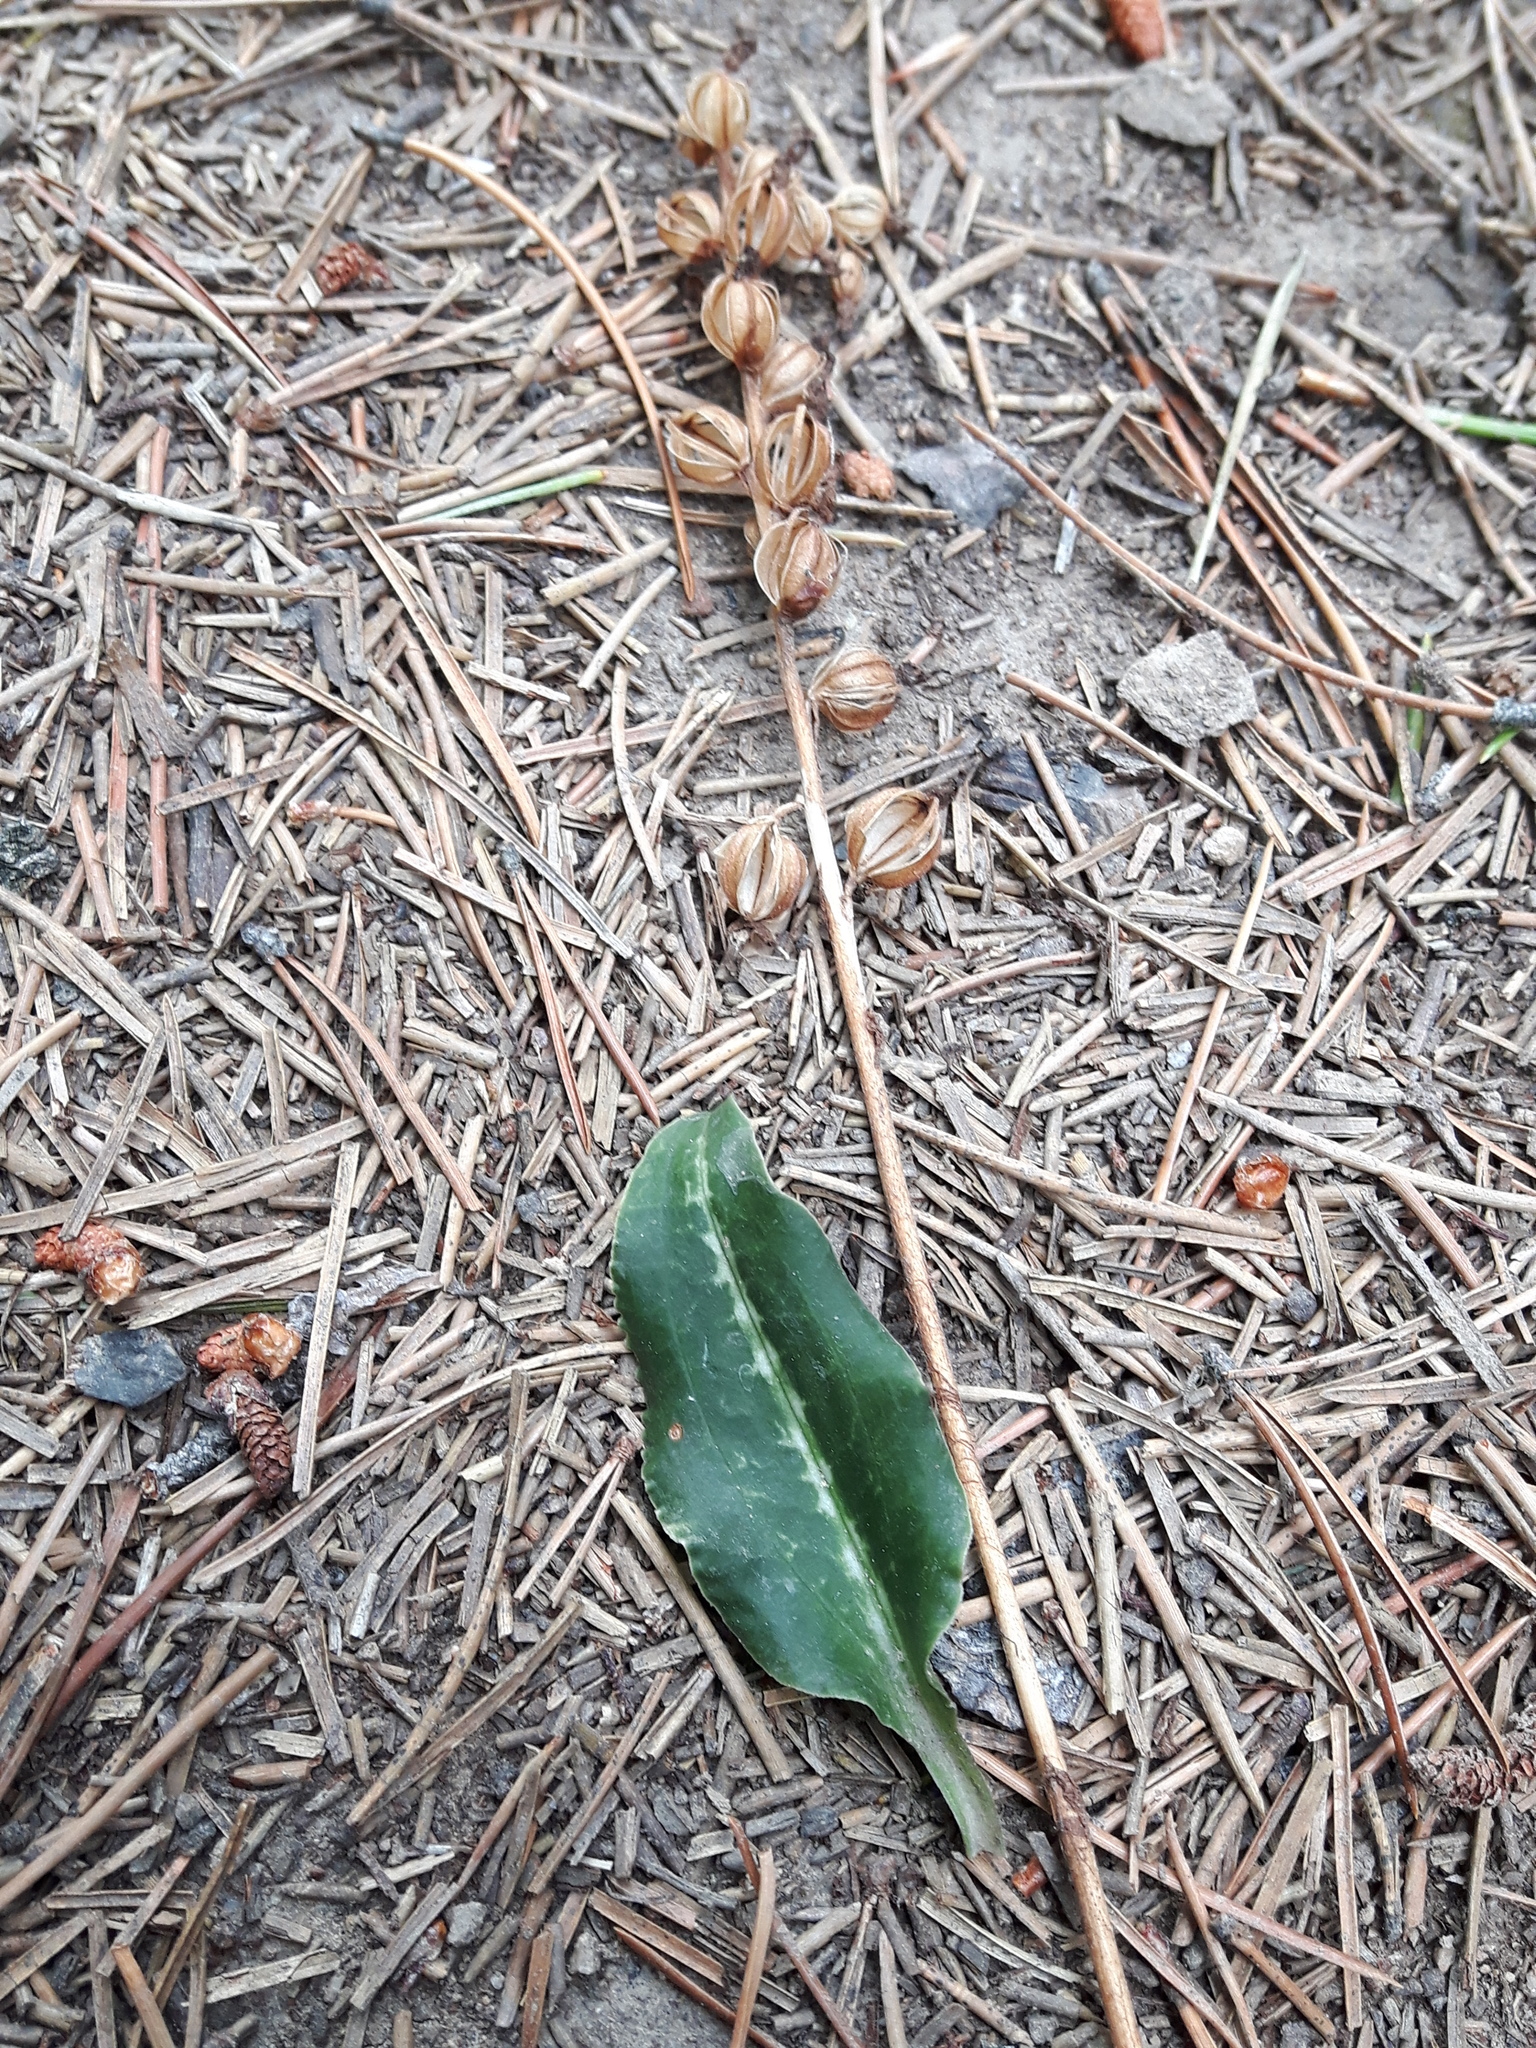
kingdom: Plantae
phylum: Tracheophyta
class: Liliopsida
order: Asparagales
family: Orchidaceae
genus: Goodyera
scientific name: Goodyera oblongifolia
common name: Giant rattlesnake-plantain
